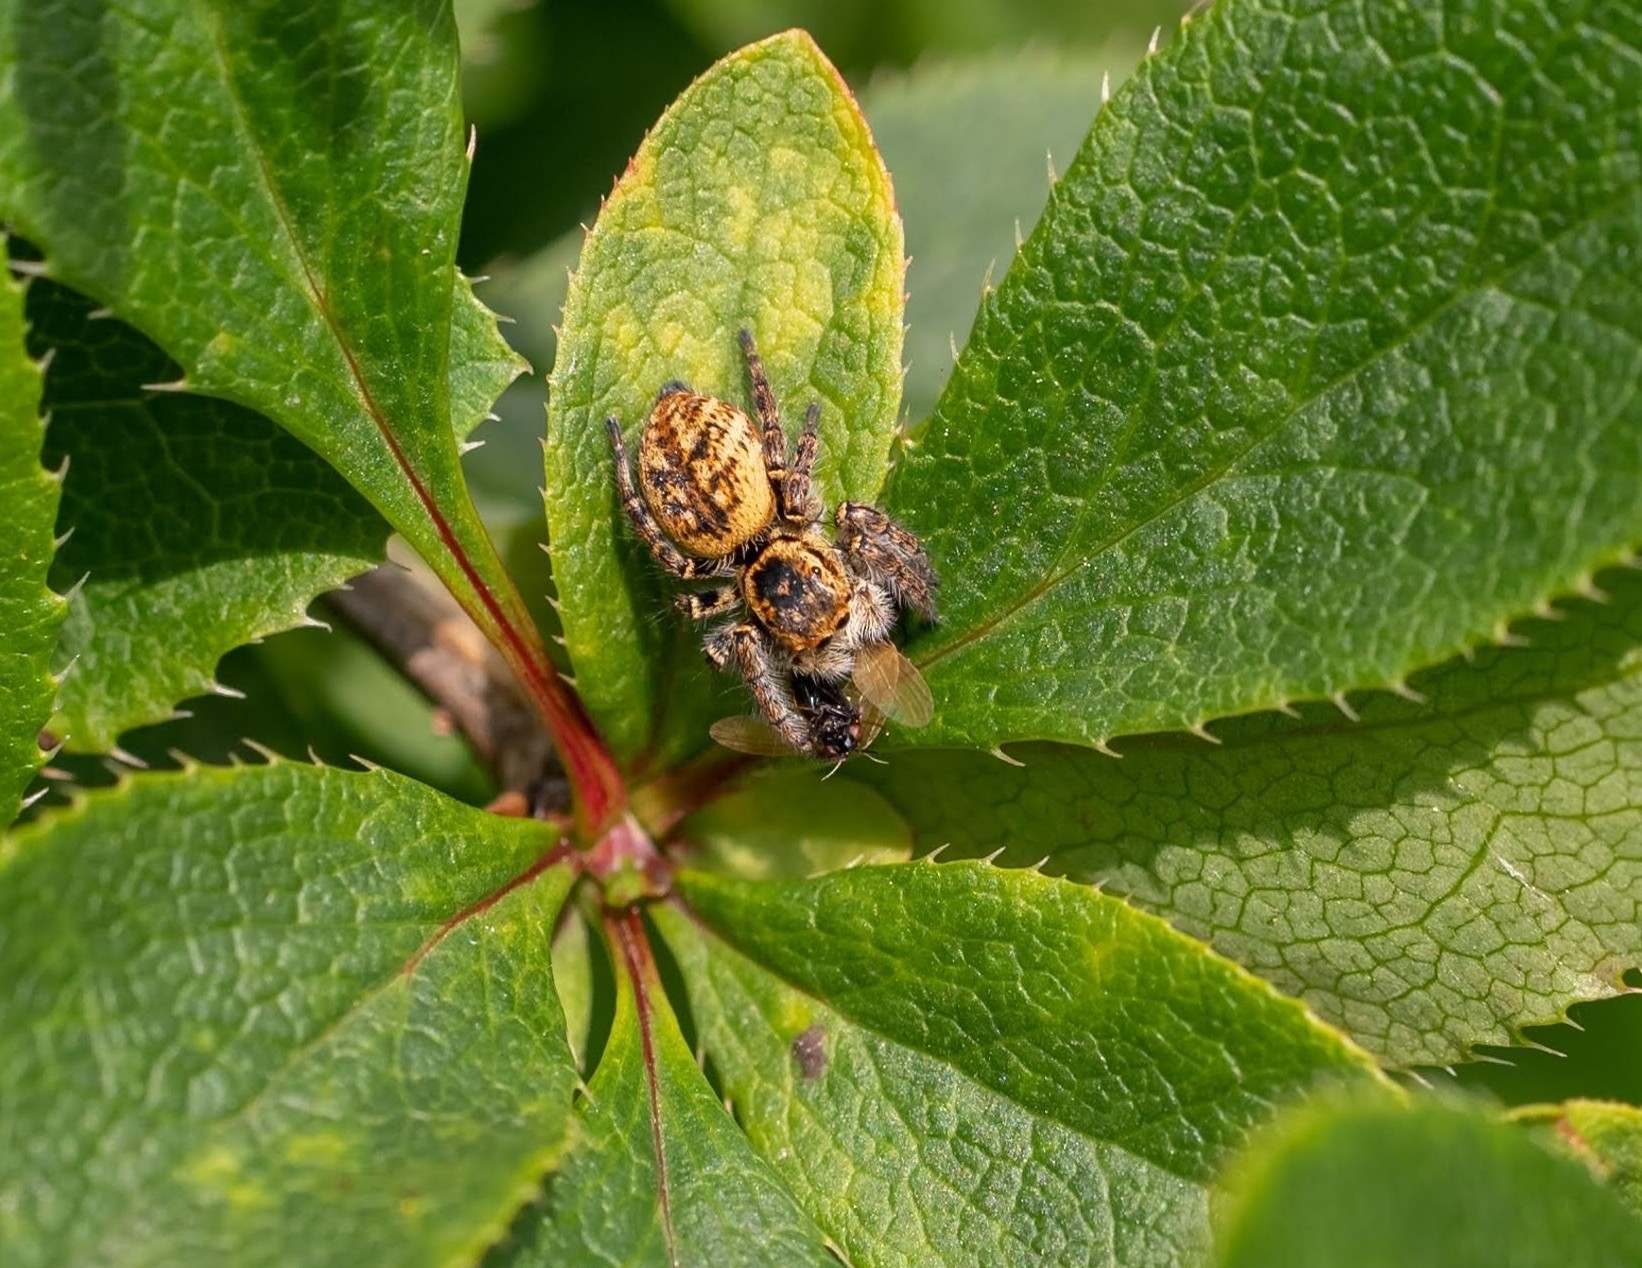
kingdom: Animalia
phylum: Arthropoda
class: Arachnida
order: Araneae
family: Salticidae
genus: Carrhotus
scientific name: Carrhotus xanthogramma
